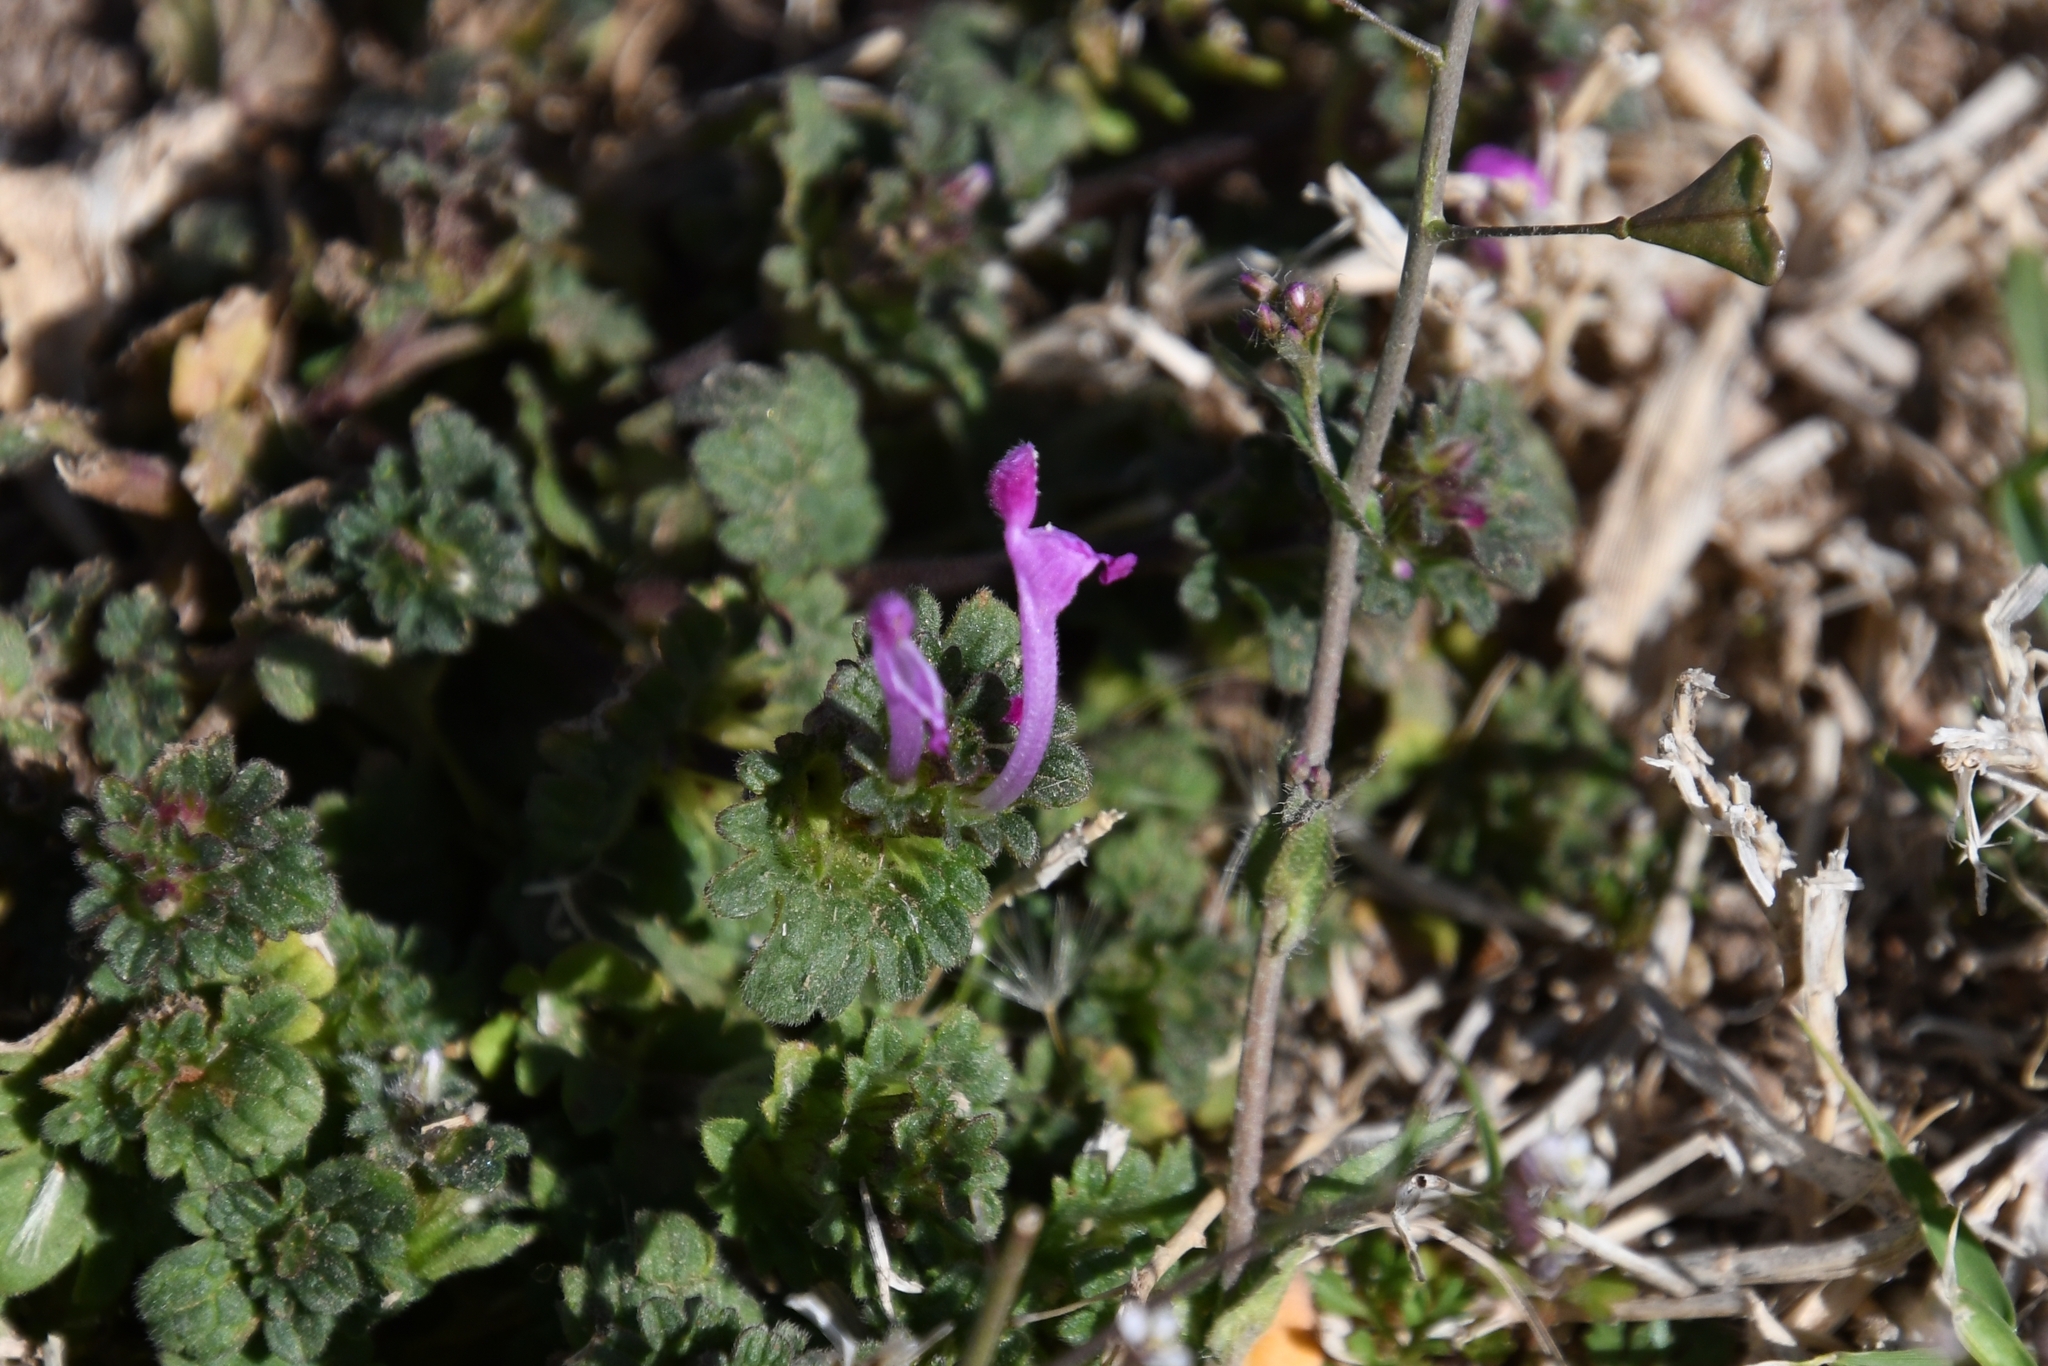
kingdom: Plantae
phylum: Tracheophyta
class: Magnoliopsida
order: Lamiales
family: Lamiaceae
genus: Lamium
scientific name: Lamium amplexicaule
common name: Henbit dead-nettle
